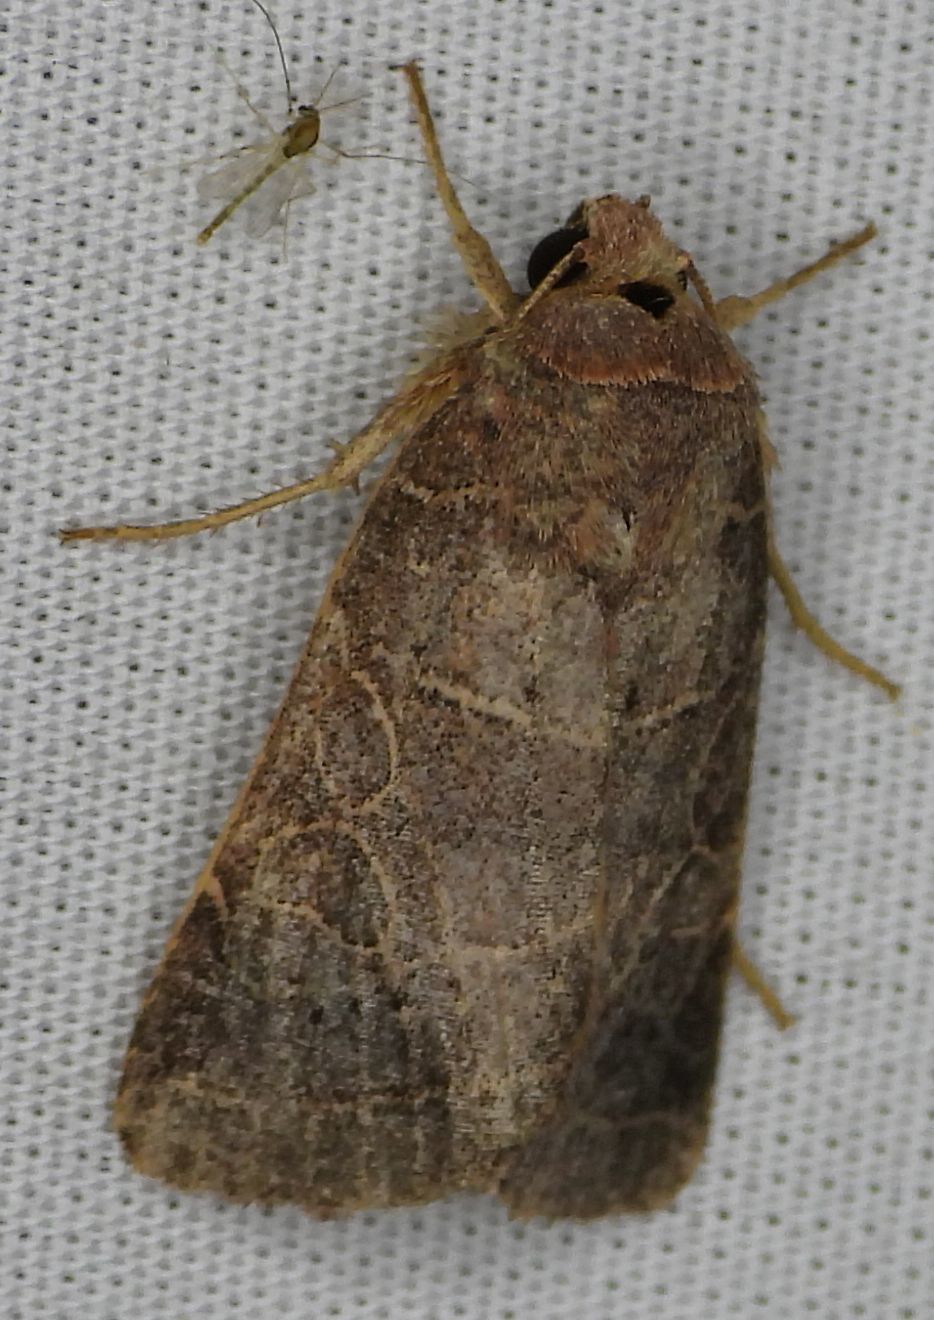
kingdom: Animalia
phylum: Arthropoda
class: Insecta
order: Lepidoptera
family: Noctuidae
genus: Orthodes
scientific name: Orthodes majuscula
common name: Rustic quaker
